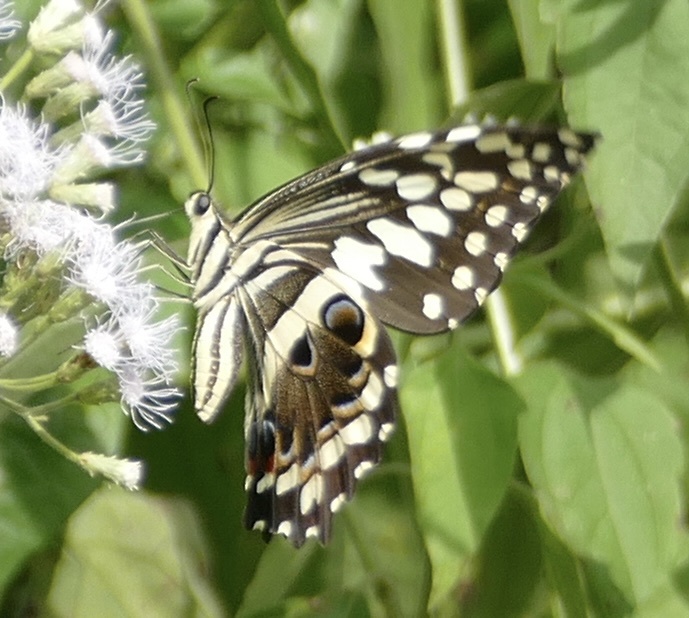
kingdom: Animalia
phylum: Arthropoda
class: Insecta
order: Lepidoptera
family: Papilionidae
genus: Papilio
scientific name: Papilio demodocus
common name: Christmas butterfly
